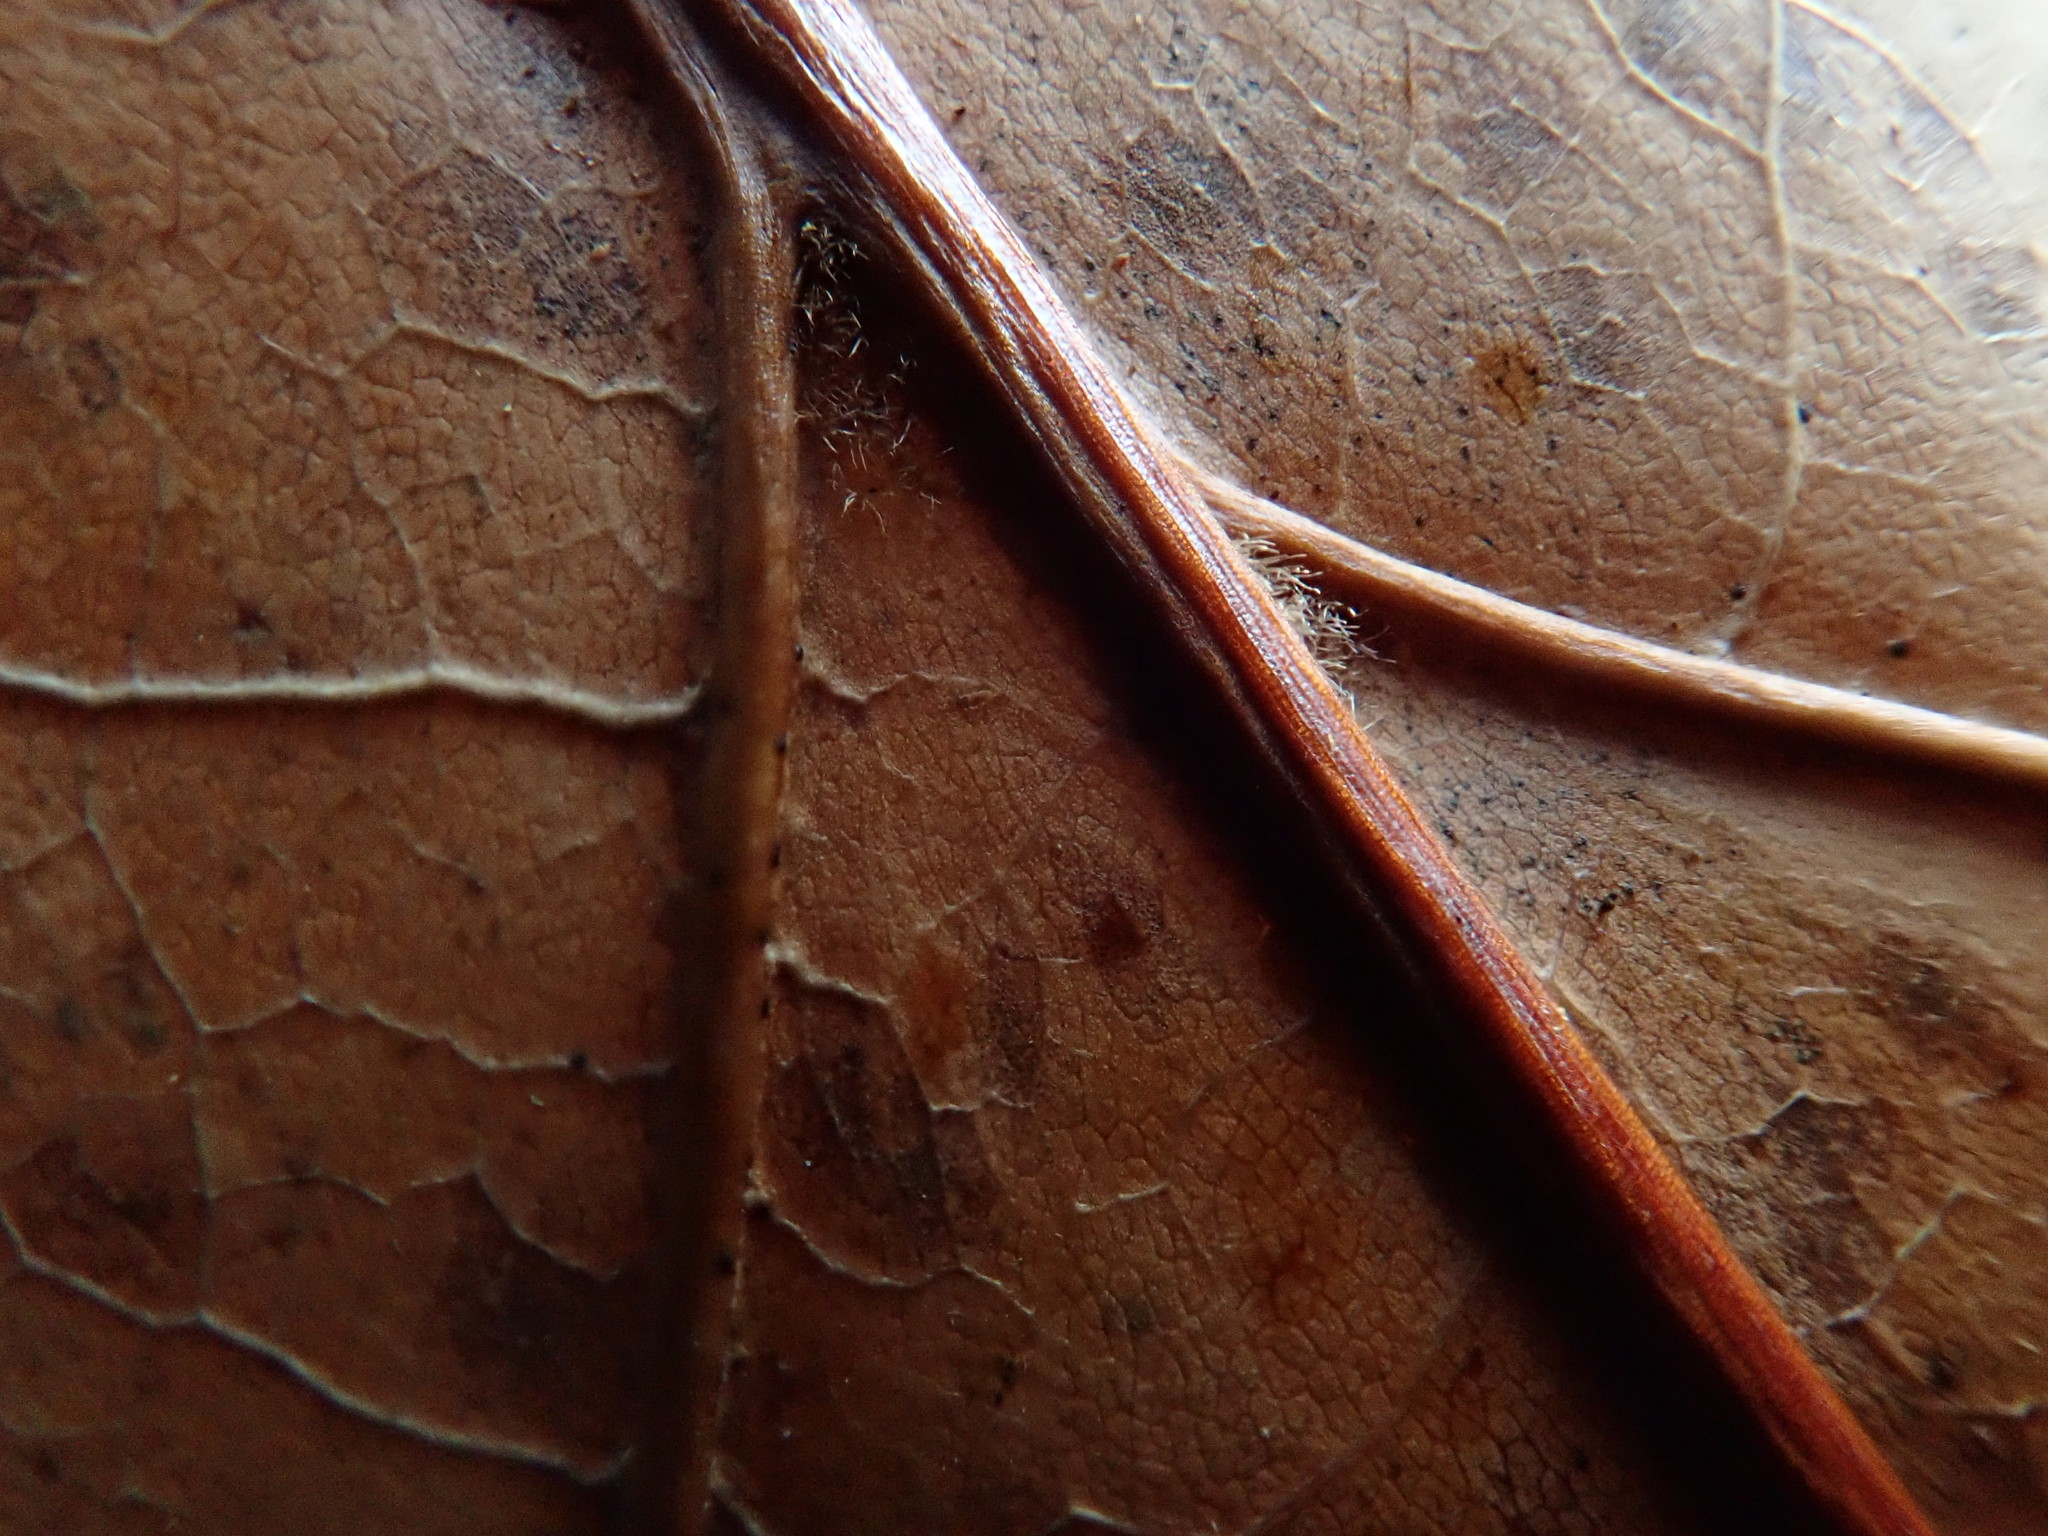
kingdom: Plantae
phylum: Tracheophyta
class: Magnoliopsida
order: Fagales
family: Fagaceae
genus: Quercus
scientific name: Quercus velutina
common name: Black oak
